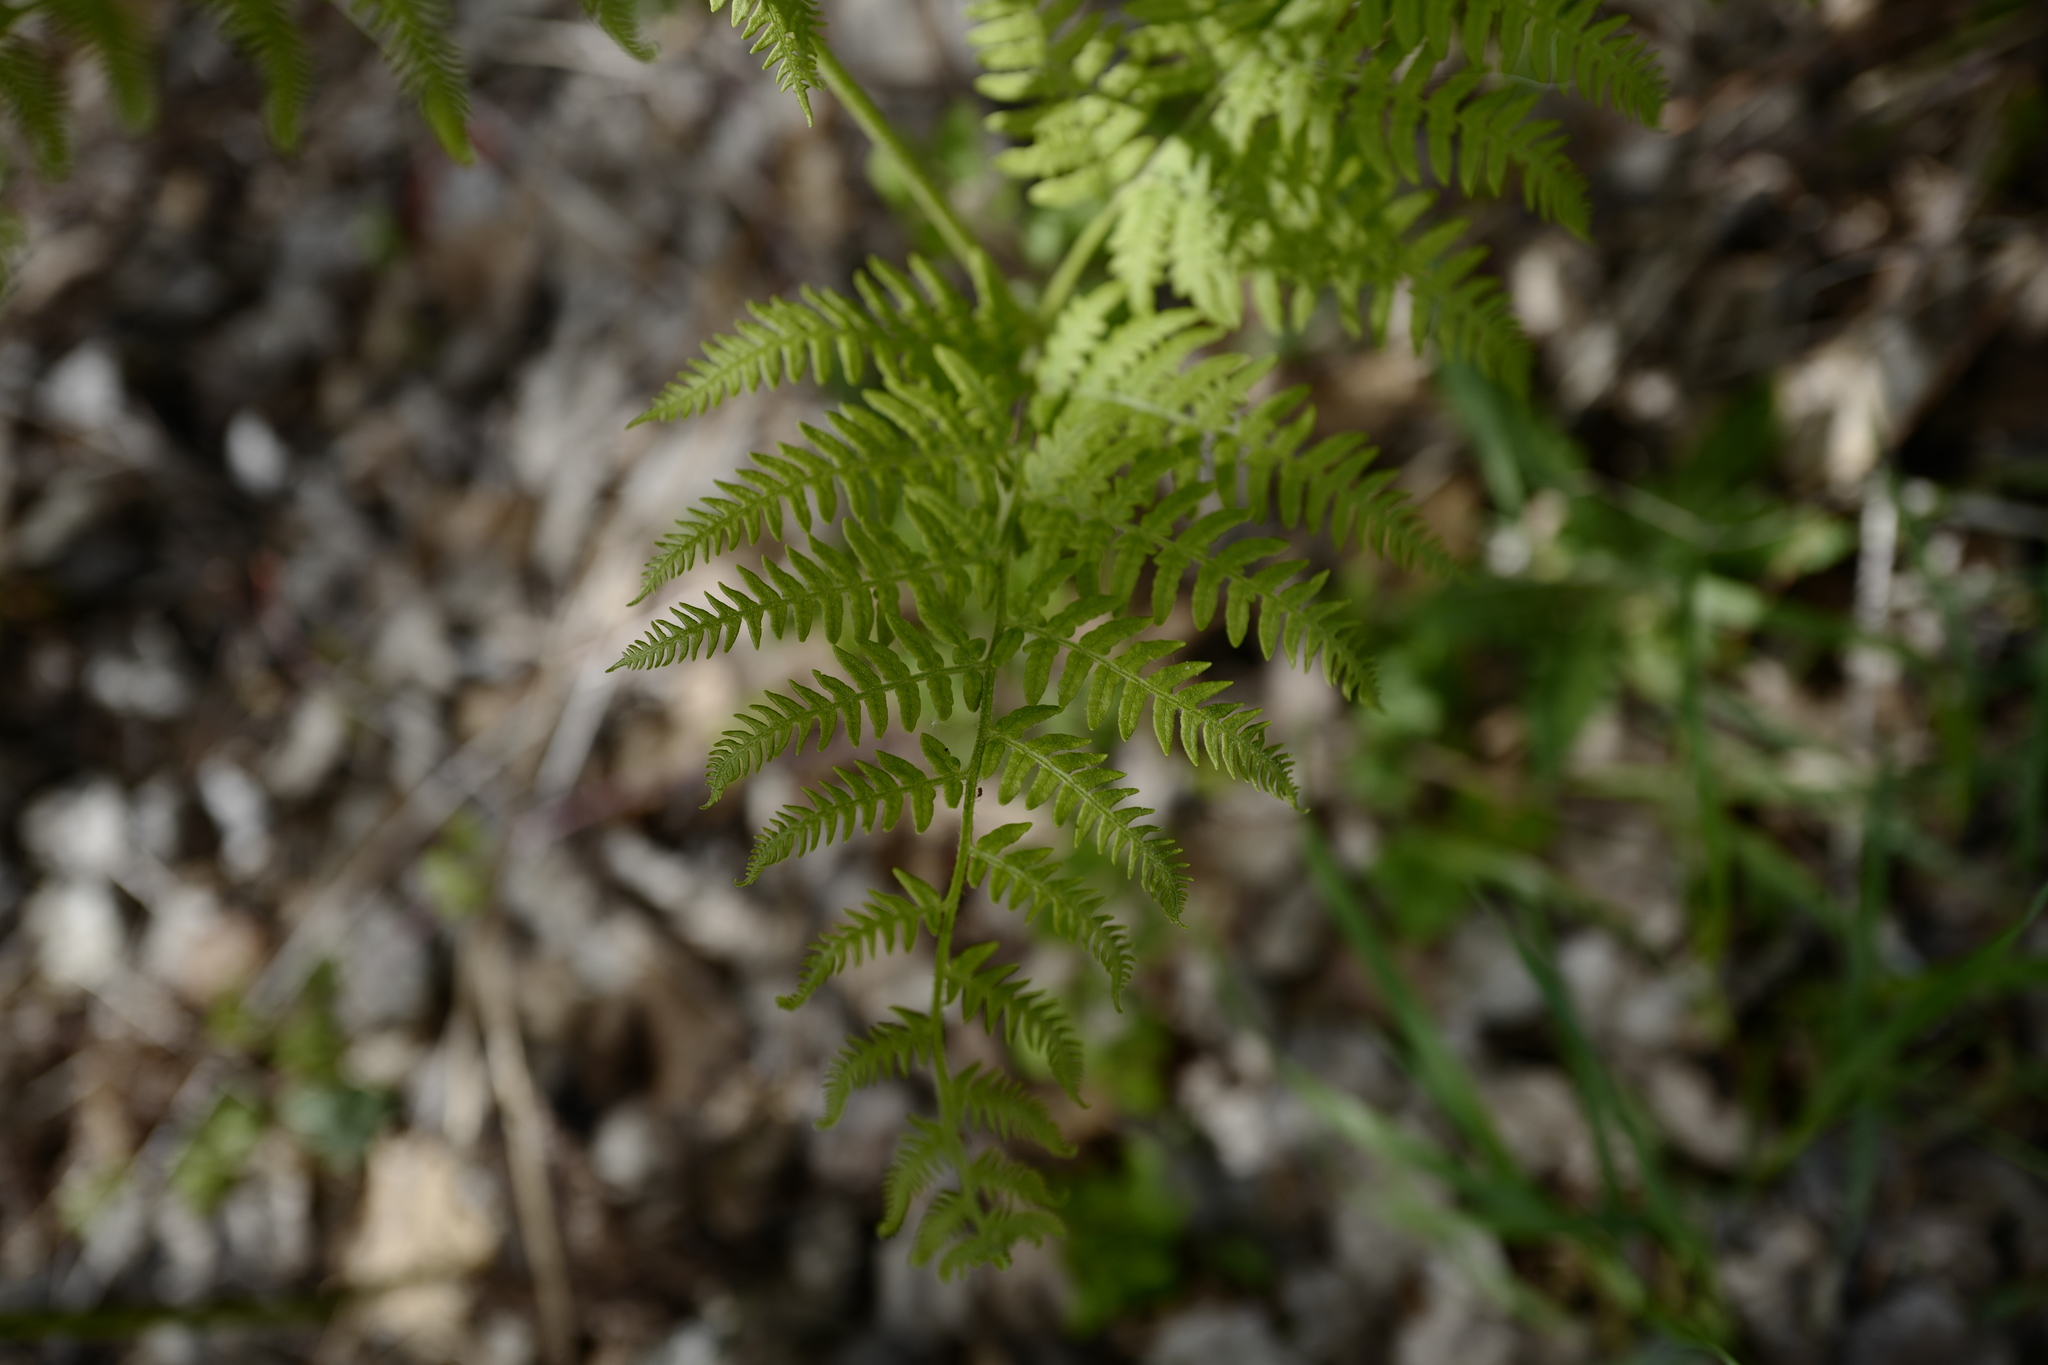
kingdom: Plantae
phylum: Tracheophyta
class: Polypodiopsida
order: Polypodiales
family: Dennstaedtiaceae
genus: Pteridium
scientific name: Pteridium aquilinum
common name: Bracken
